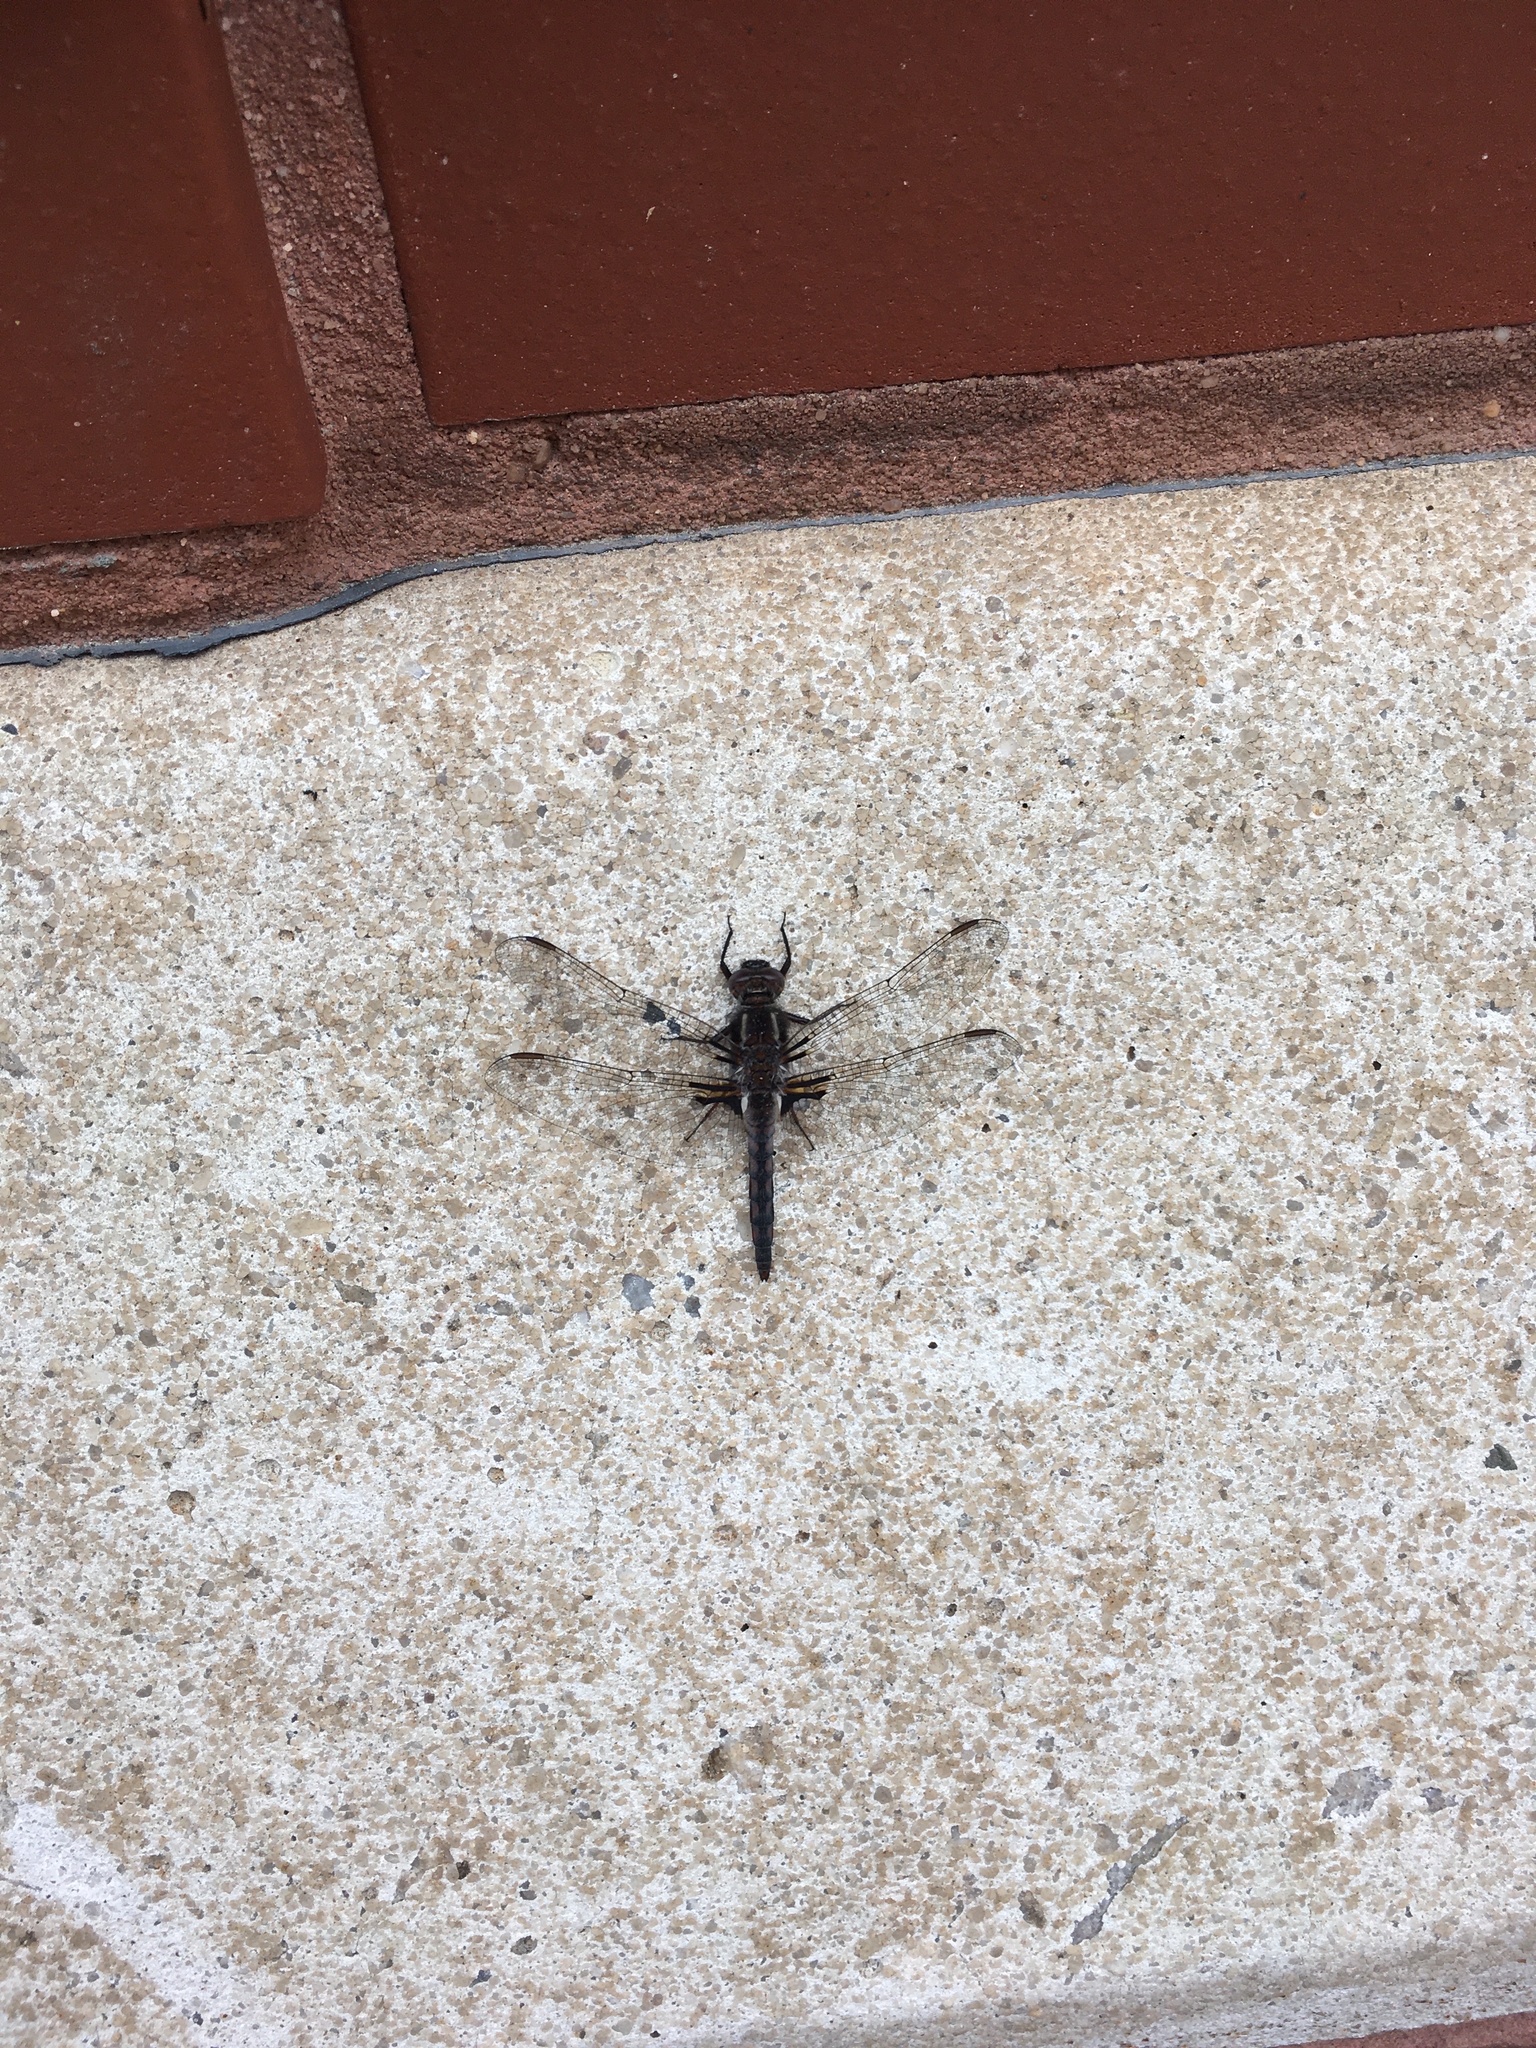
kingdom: Animalia
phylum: Arthropoda
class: Insecta
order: Odonata
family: Libellulidae
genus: Ladona
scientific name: Ladona deplanata
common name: Blue corporal
